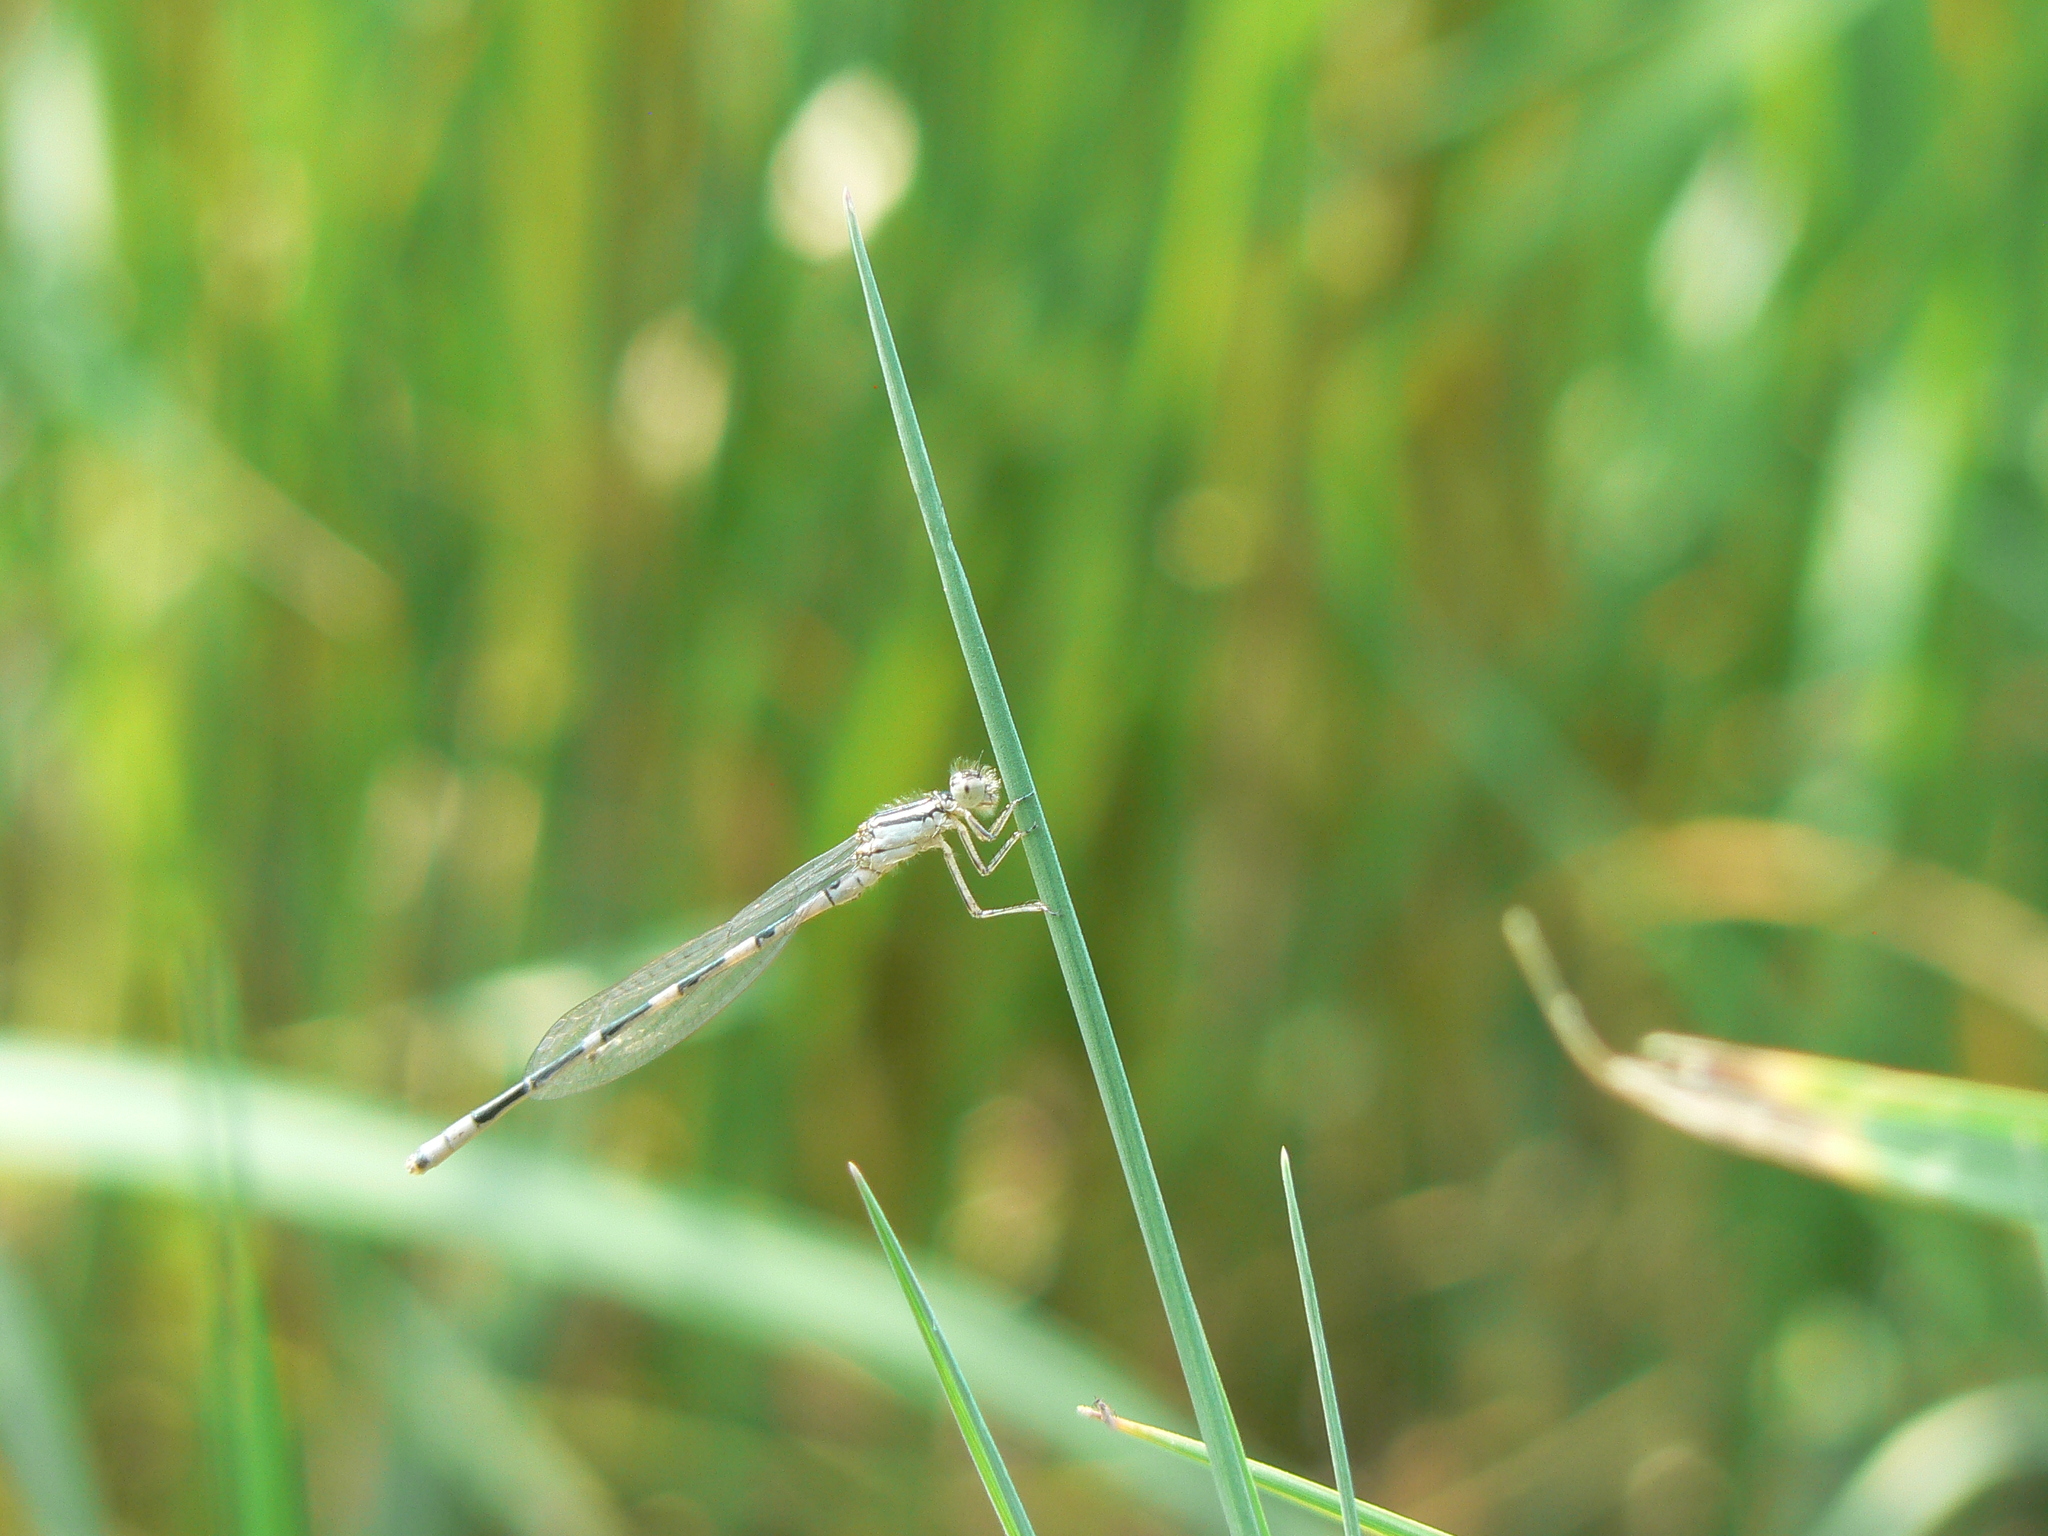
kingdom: Animalia
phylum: Arthropoda
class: Insecta
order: Odonata
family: Coenagrionidae
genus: Enallagma
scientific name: Enallagma carunculatum
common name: Tule bluet
